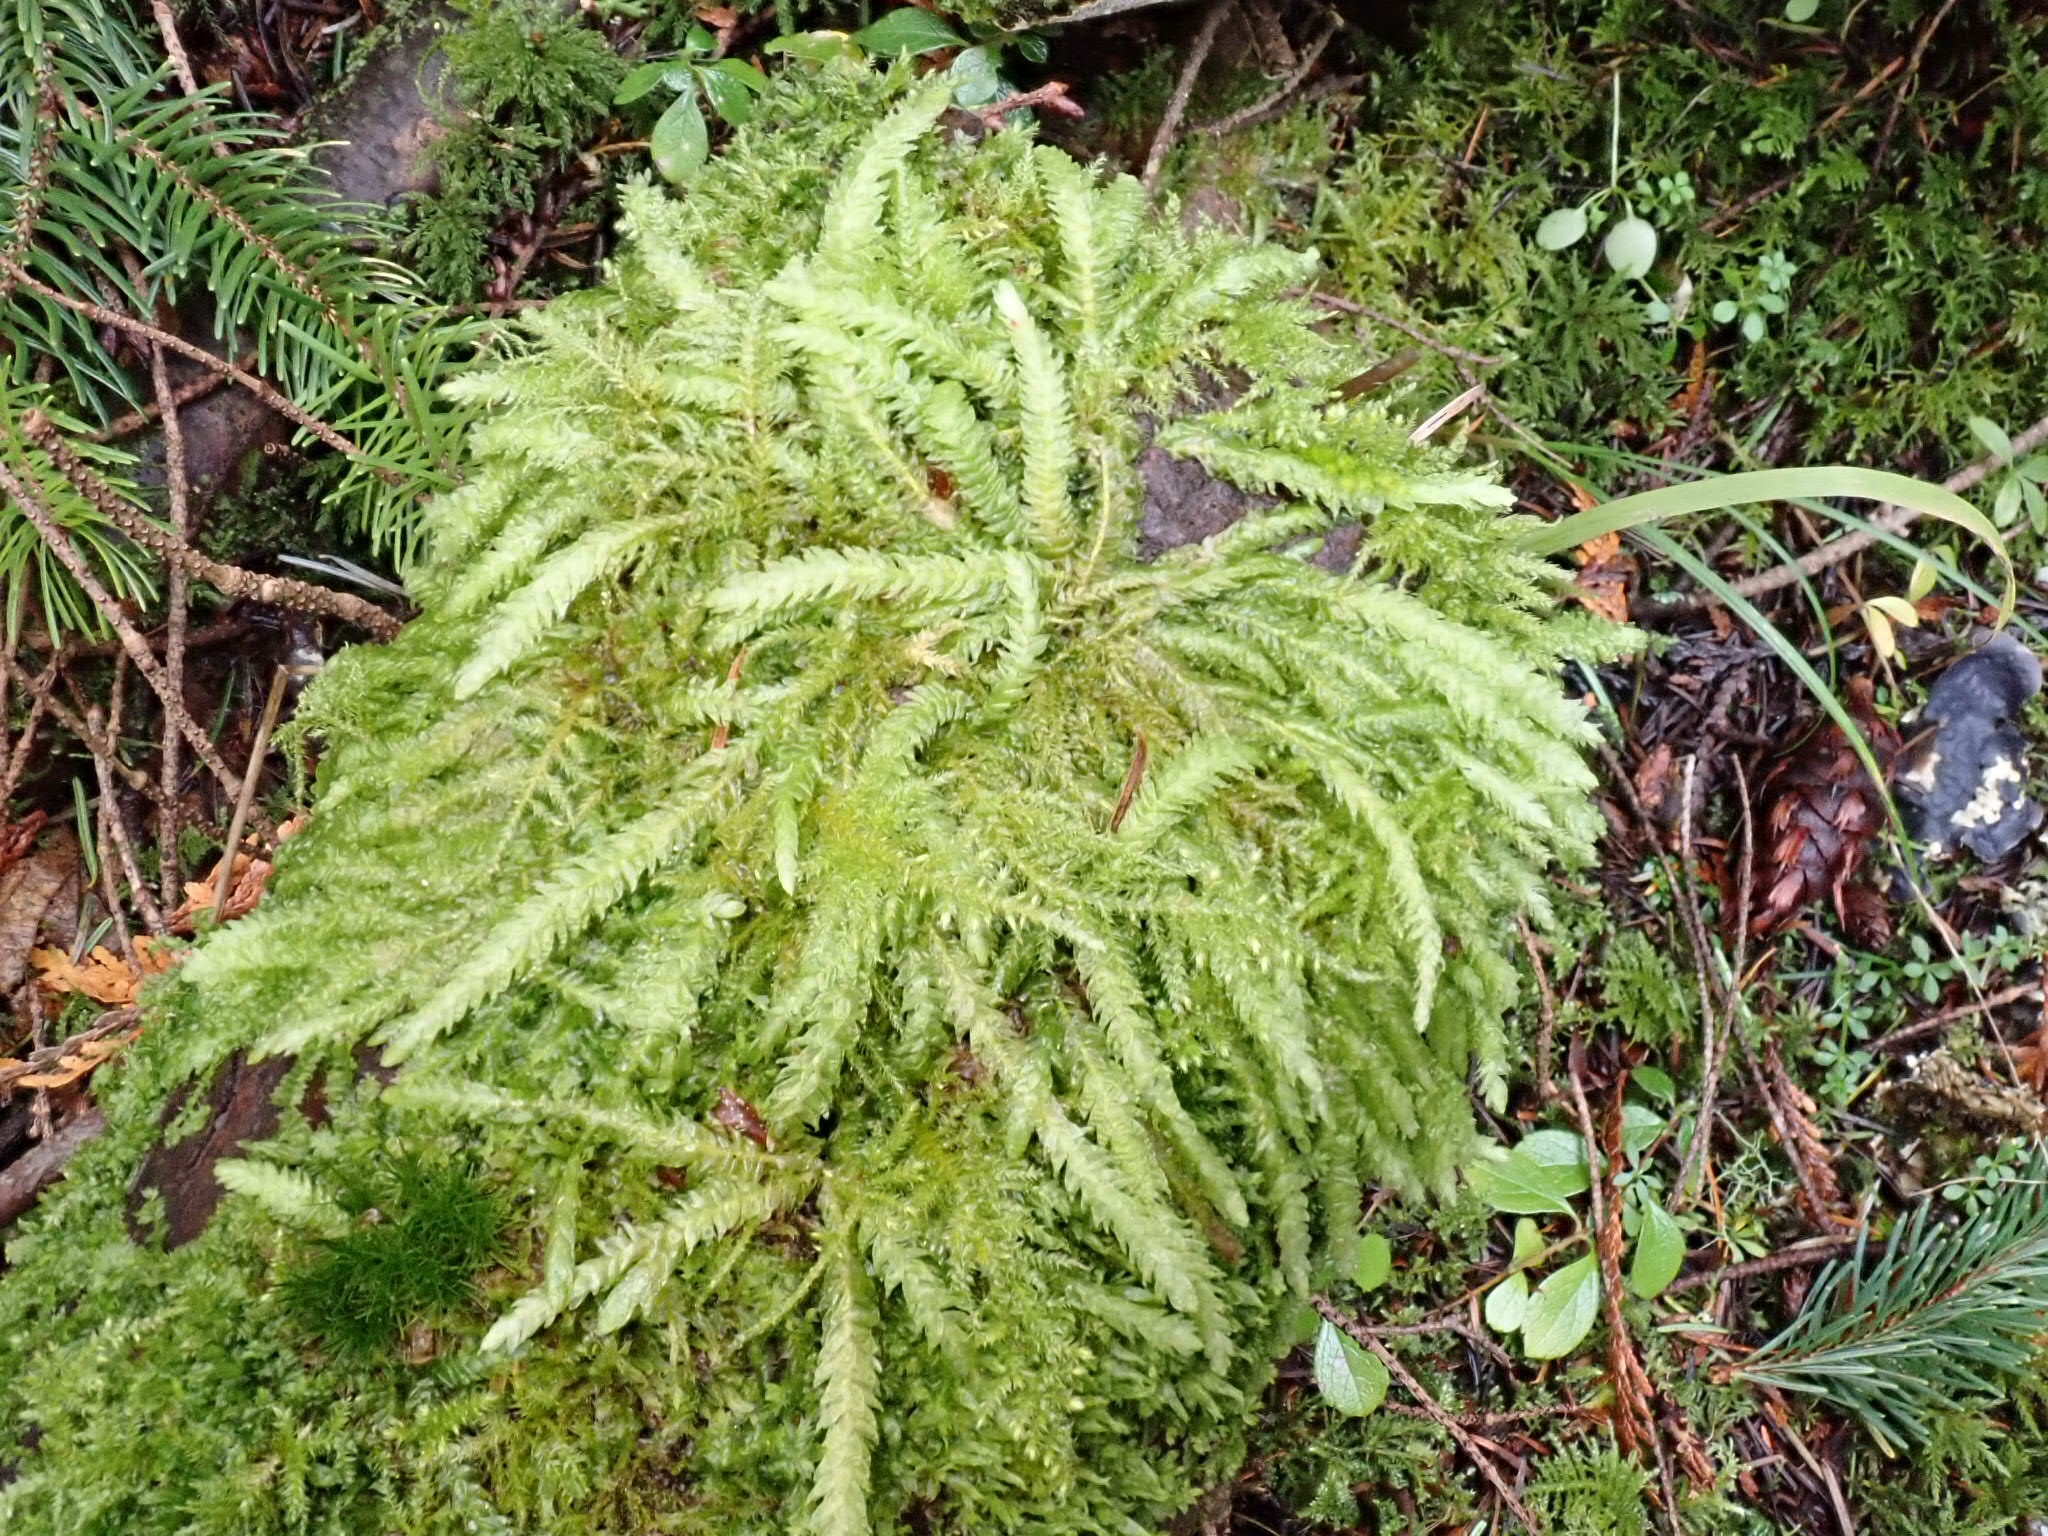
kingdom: Plantae
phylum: Bryophyta
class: Bryopsida
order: Hypnales
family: Plagiotheciaceae
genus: Plagiothecium
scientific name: Plagiothecium undulatum
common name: Waved silk-moss
